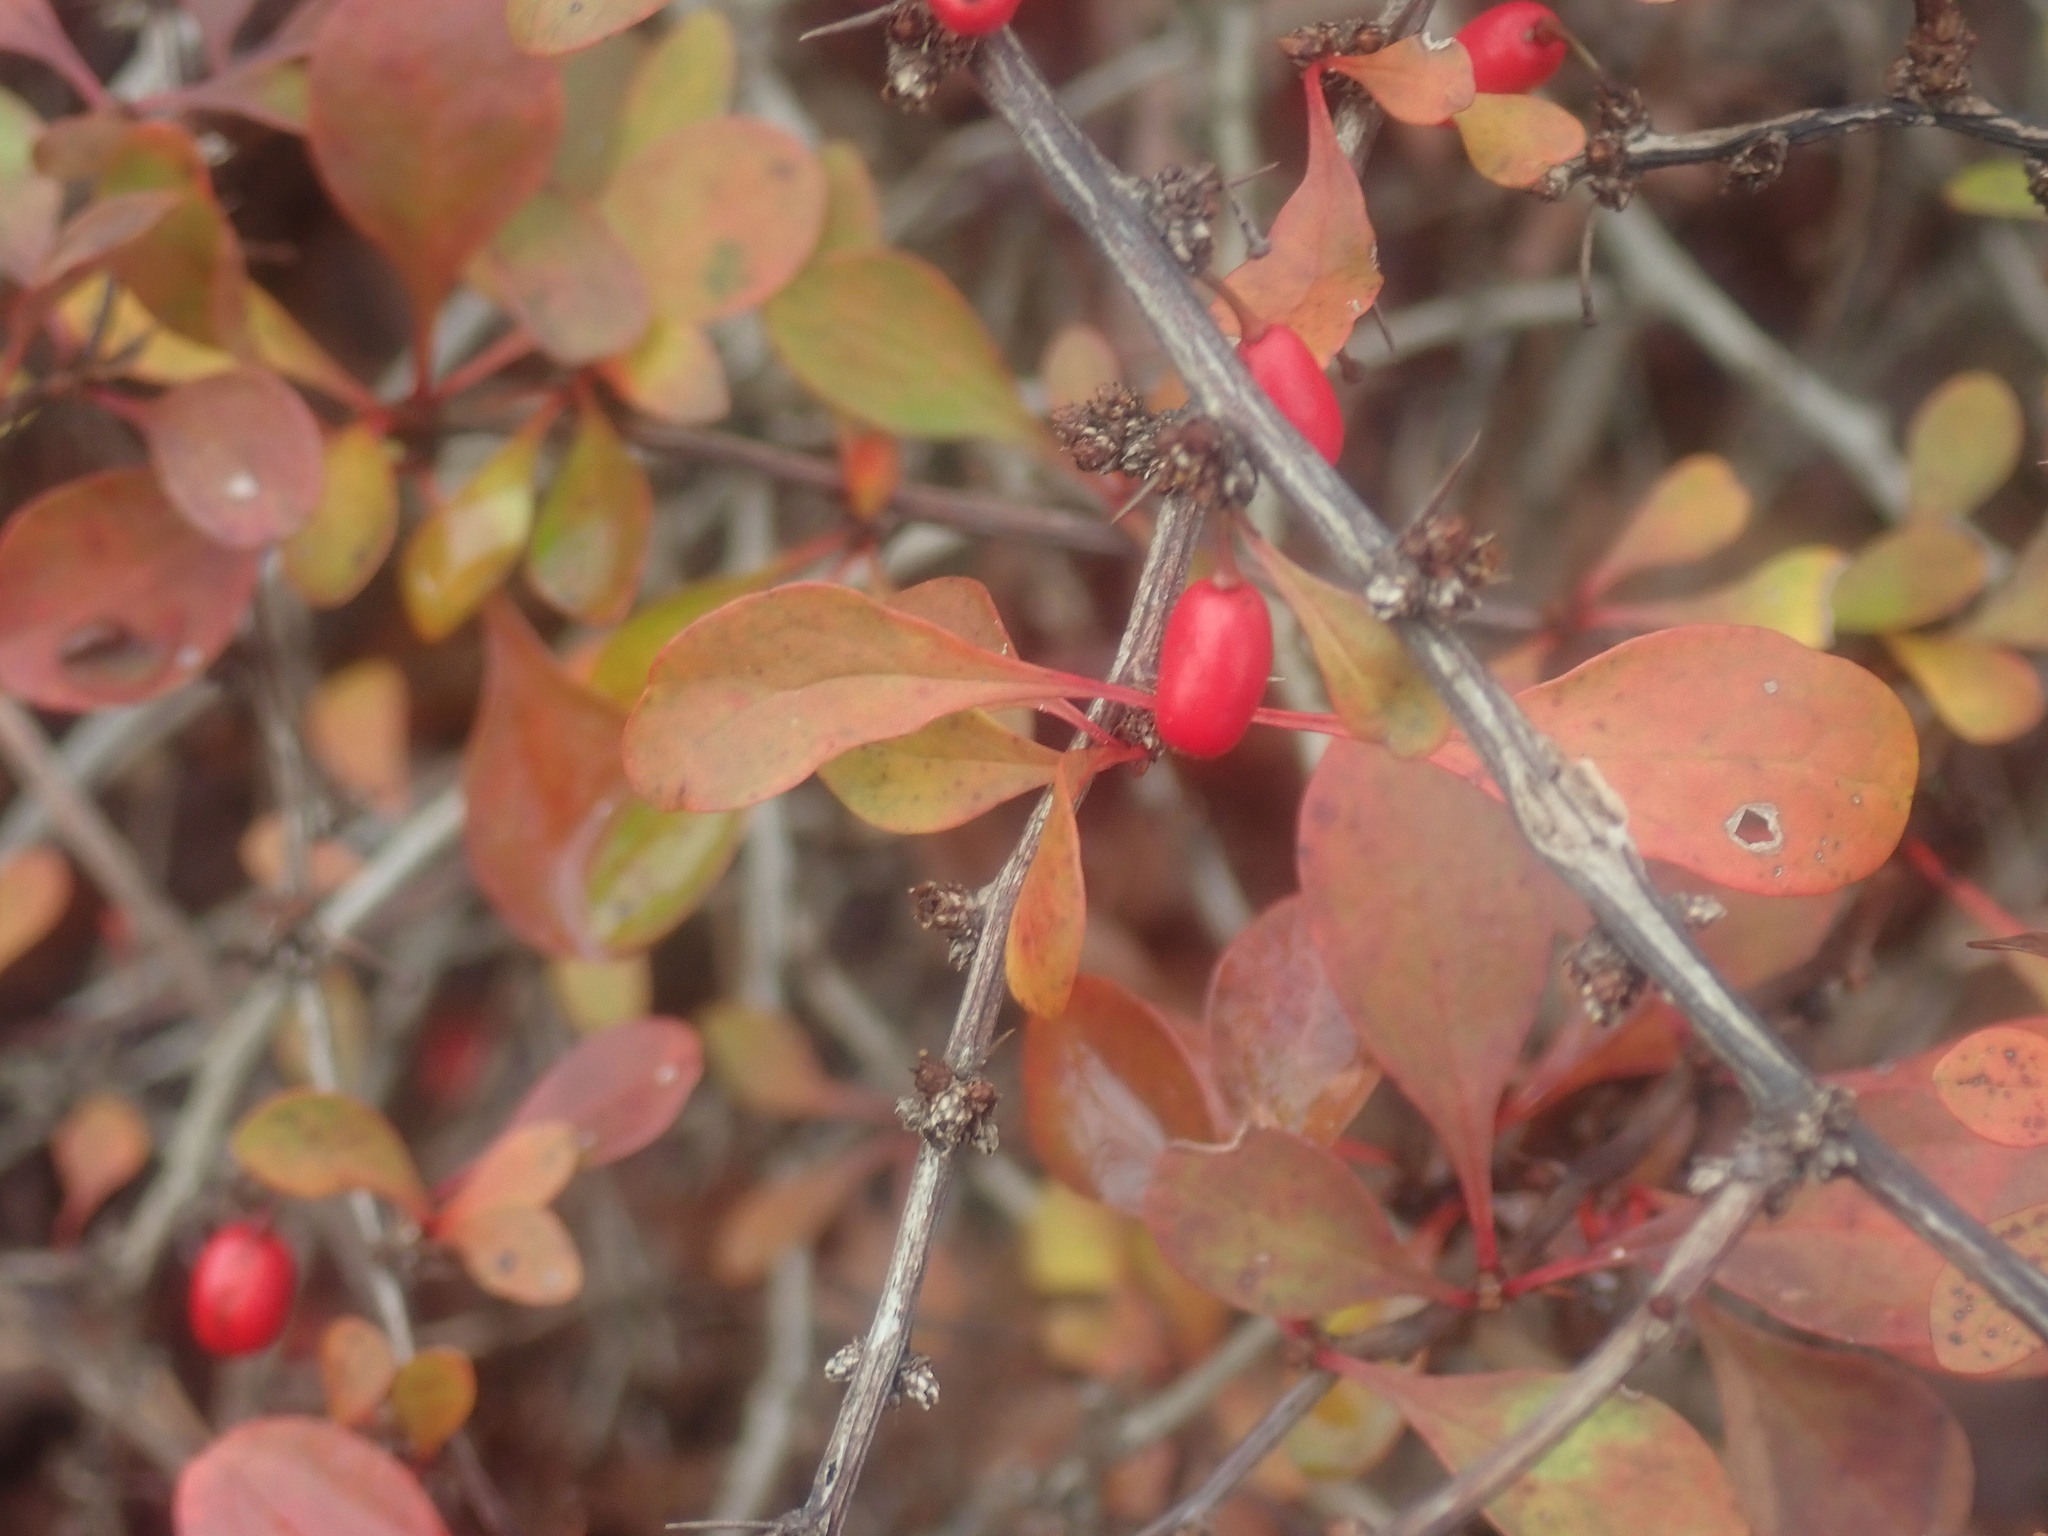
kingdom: Plantae
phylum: Tracheophyta
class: Magnoliopsida
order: Ranunculales
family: Berberidaceae
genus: Berberis
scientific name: Berberis thunbergii
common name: Japanese barberry
